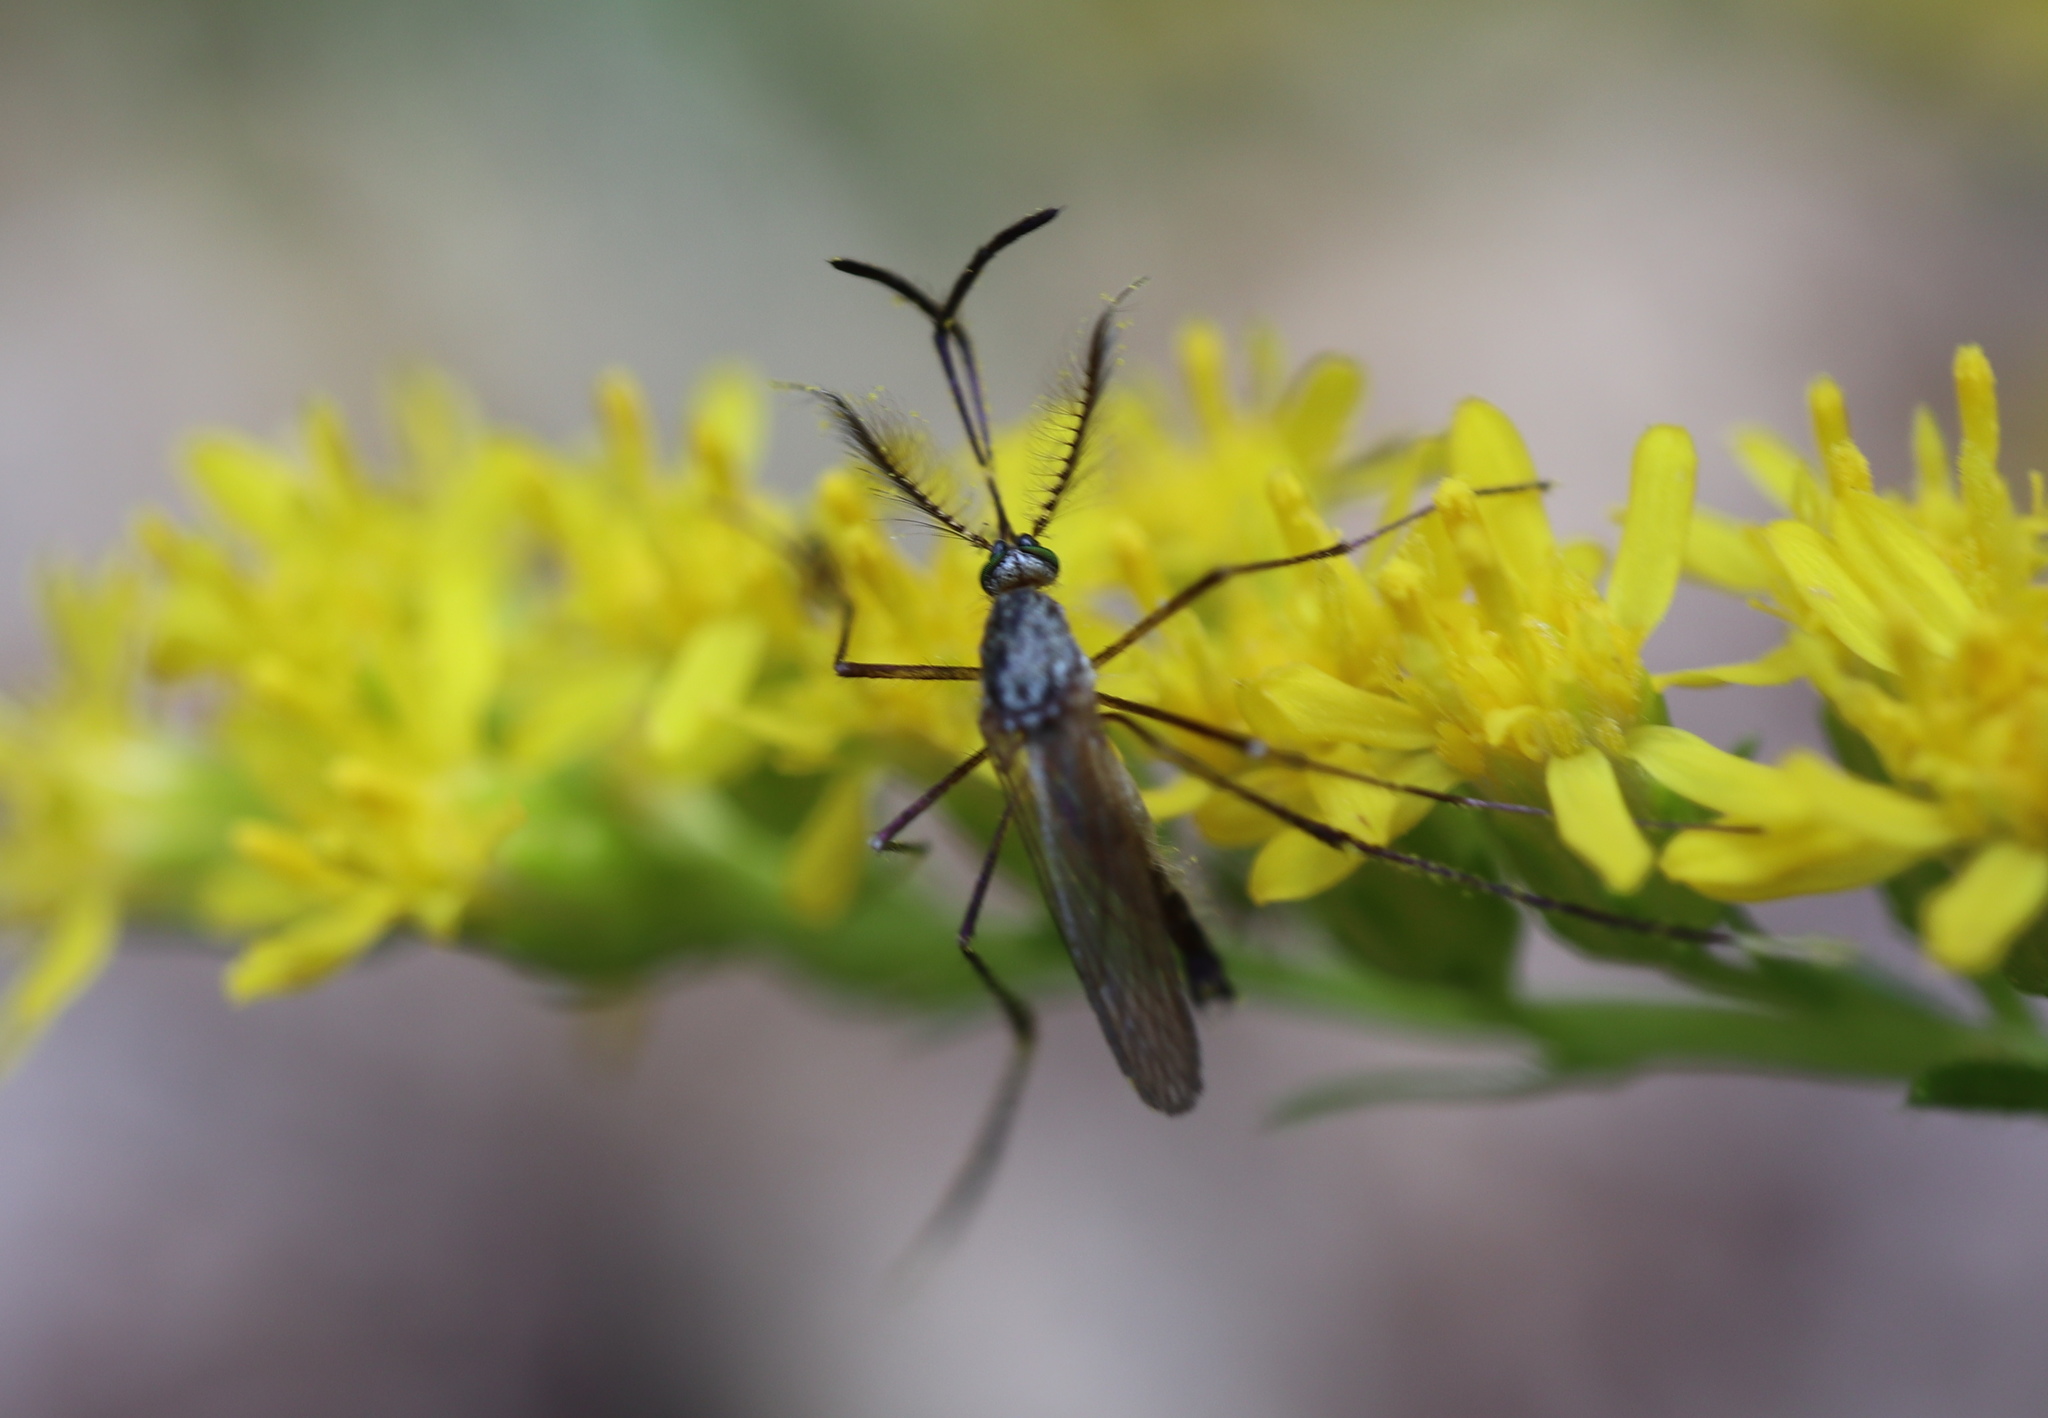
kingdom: Animalia
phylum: Arthropoda
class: Insecta
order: Diptera
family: Culicidae
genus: Psorophora
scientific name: Psorophora ferox
